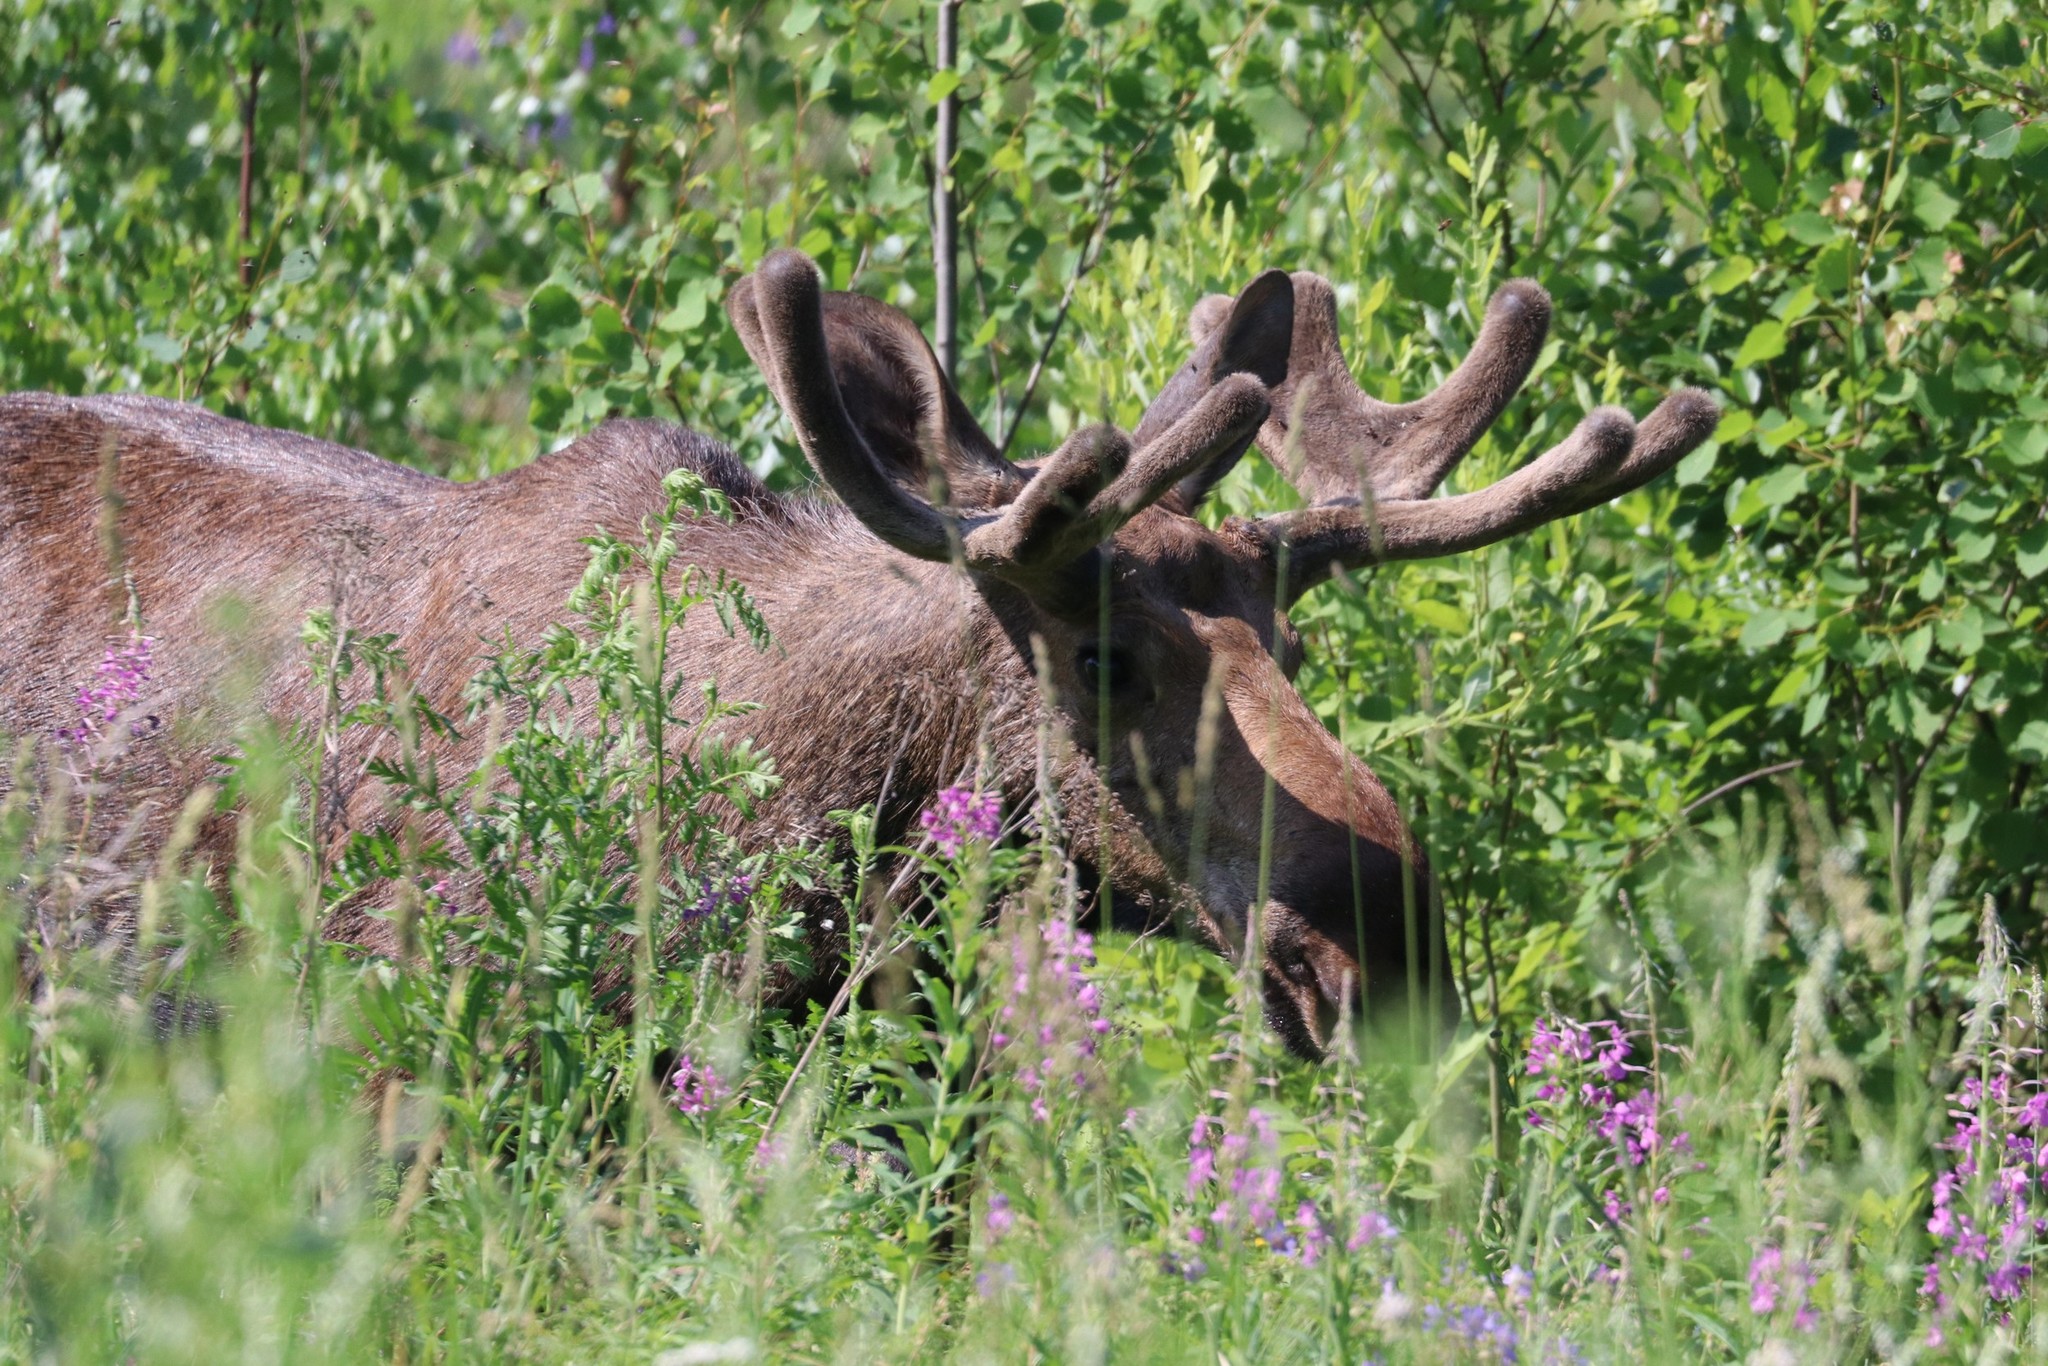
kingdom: Animalia
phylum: Chordata
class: Mammalia
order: Artiodactyla
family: Cervidae
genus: Alces
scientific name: Alces alces
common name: Moose
